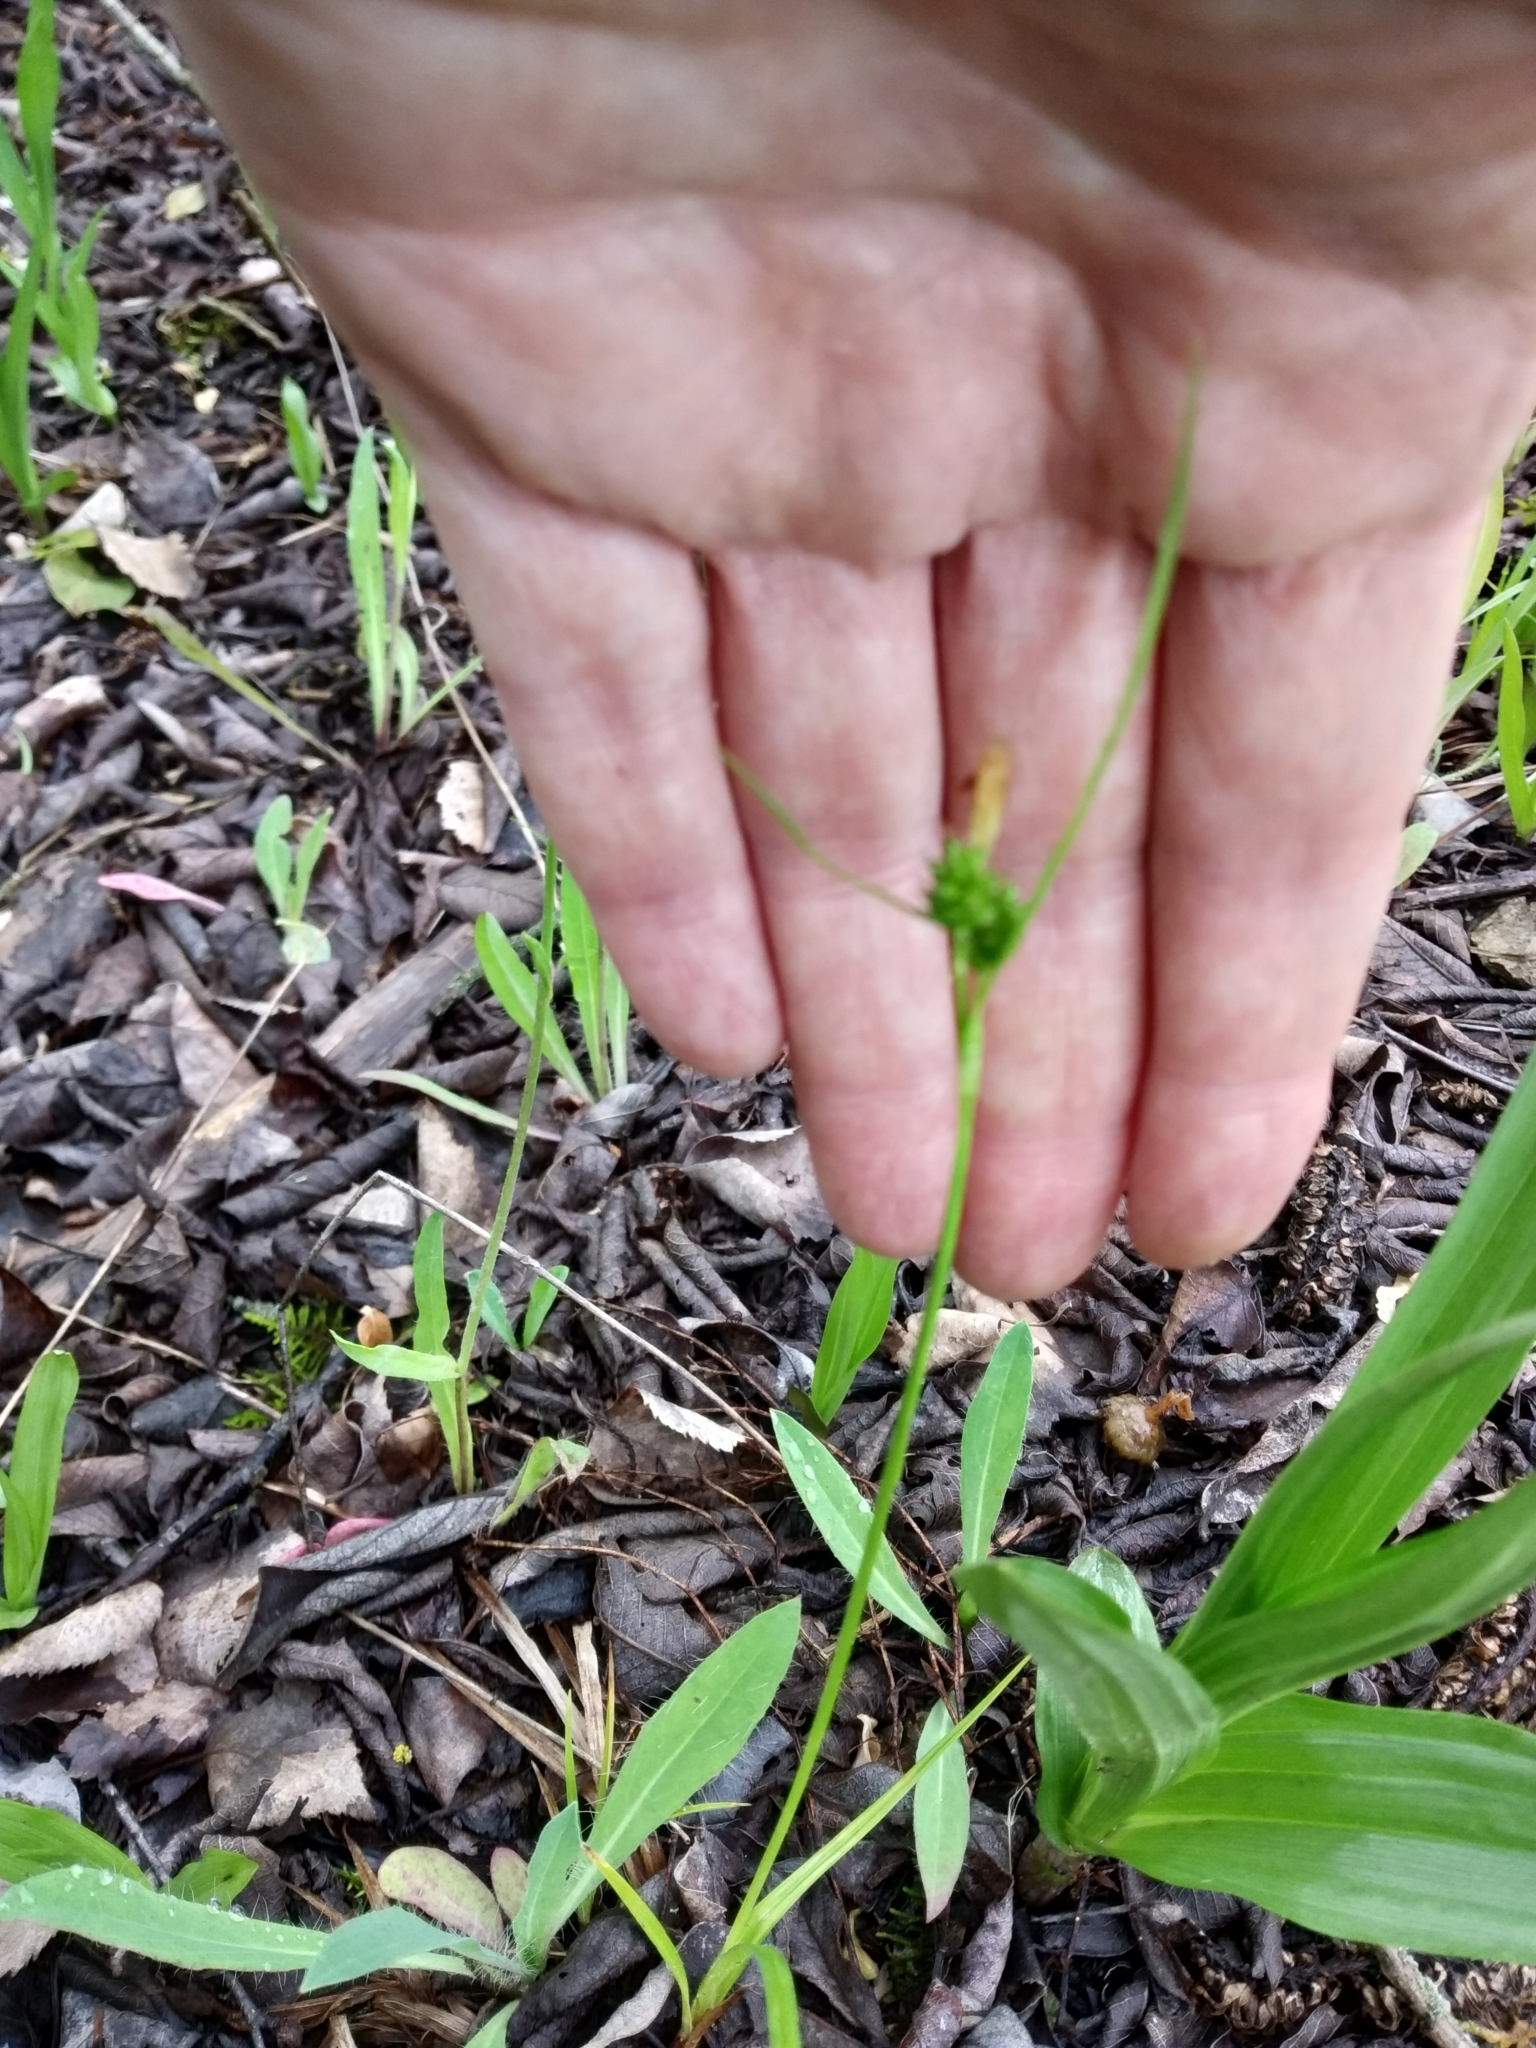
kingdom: Plantae
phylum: Tracheophyta
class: Liliopsida
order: Poales
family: Cyperaceae
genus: Carex
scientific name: Carex pallescens
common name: Pale sedge
